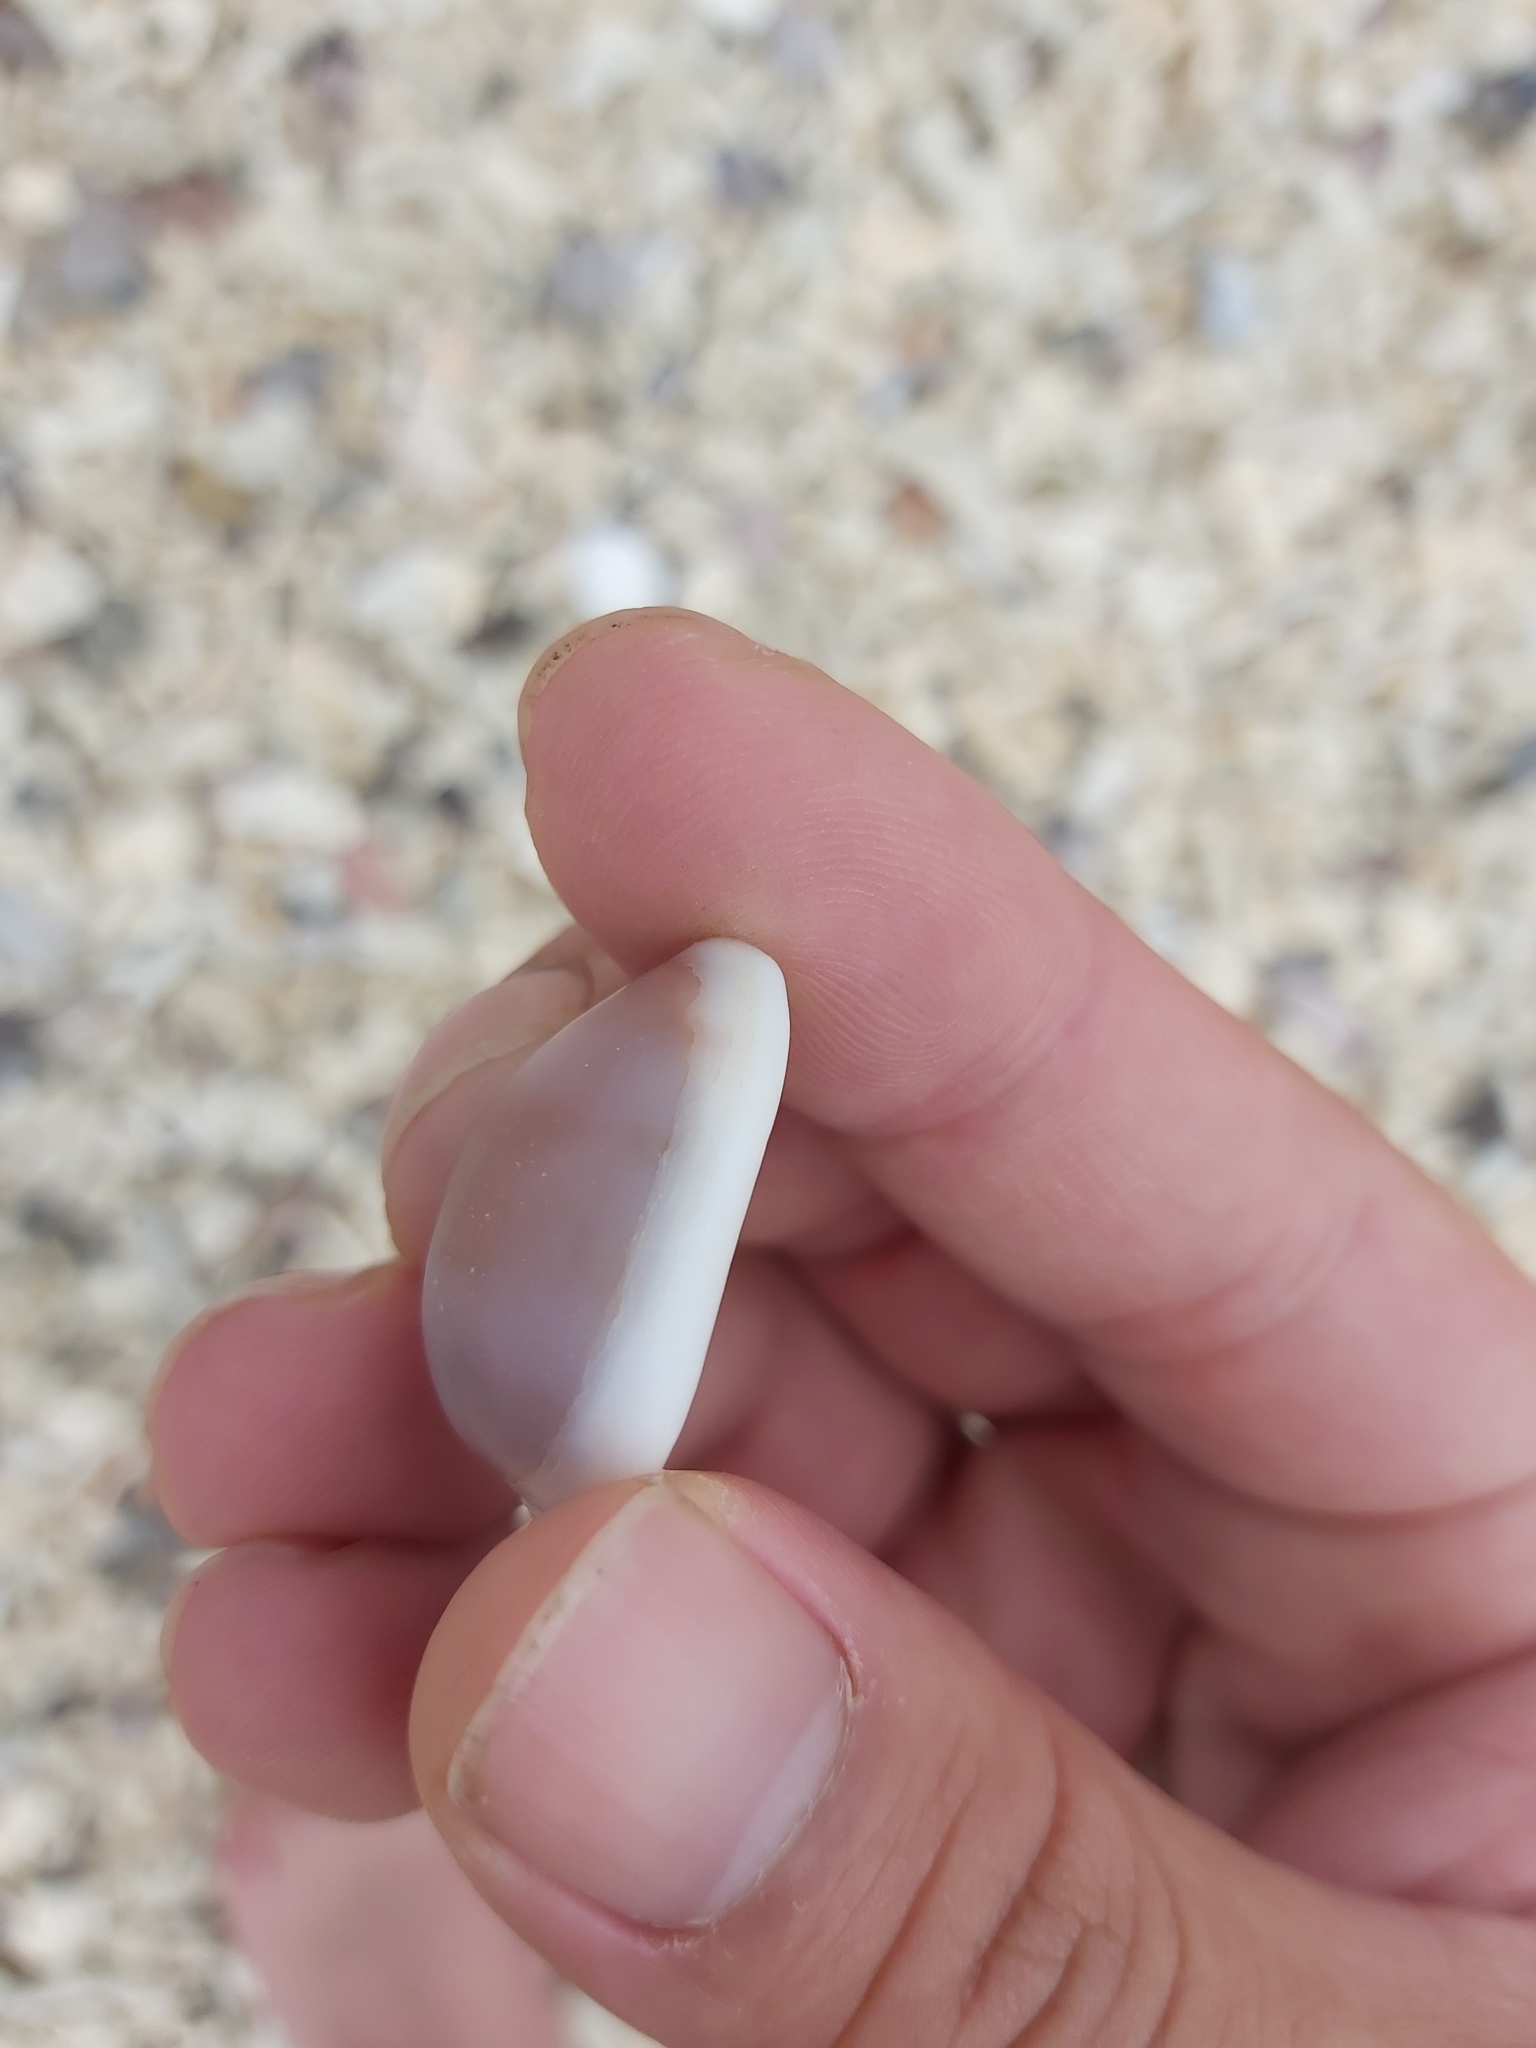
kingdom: Animalia
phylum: Mollusca
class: Gastropoda
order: Littorinimorpha
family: Cypraeidae
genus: Erronea
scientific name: Erronea errones
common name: Mistaken cowrie
